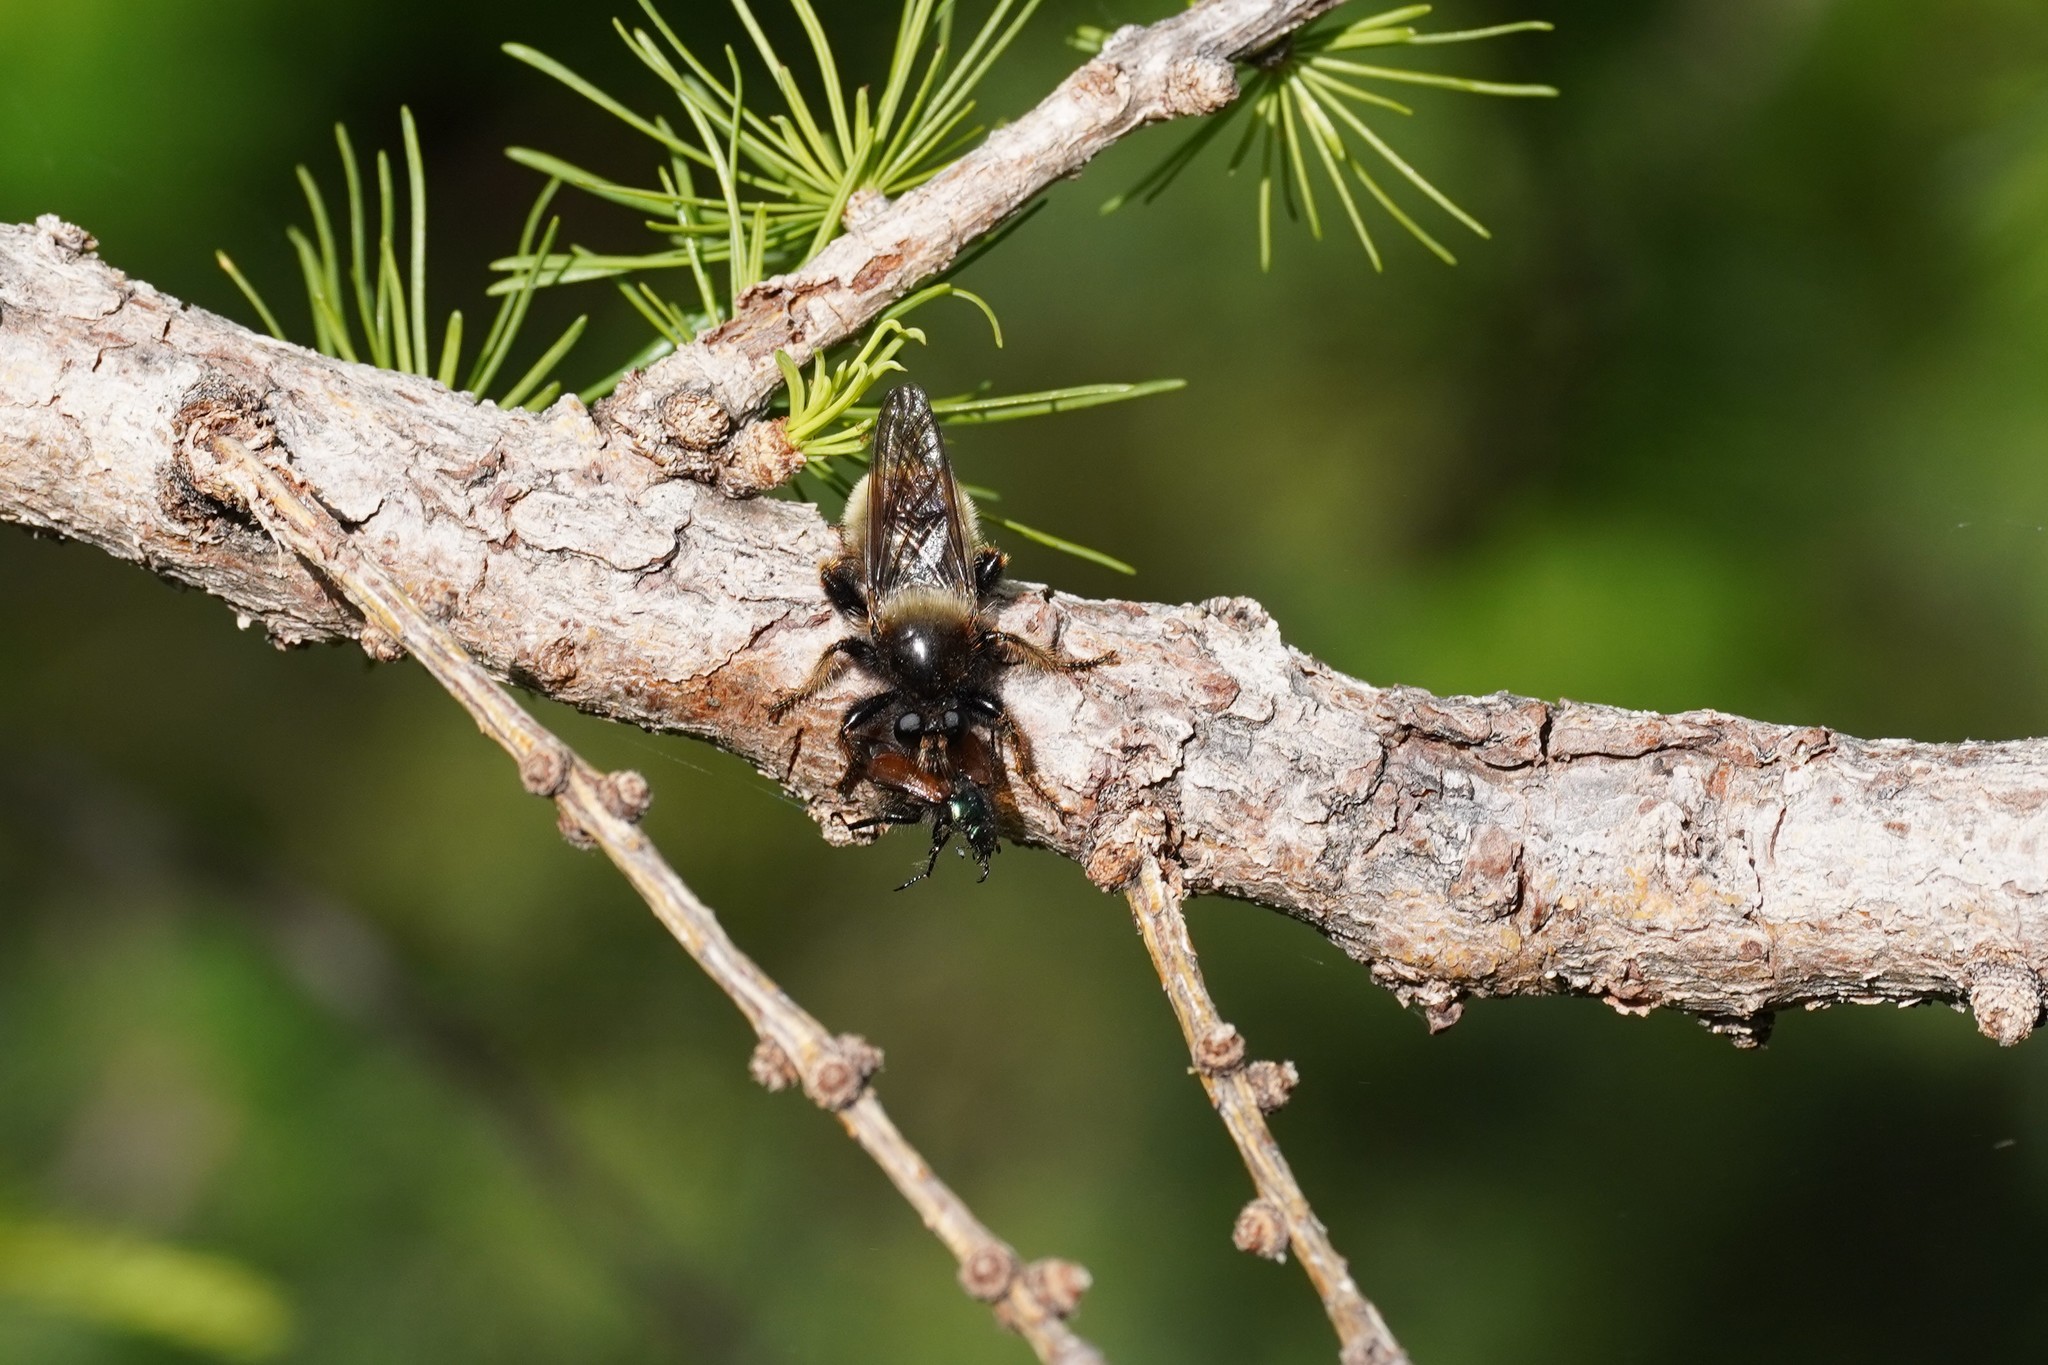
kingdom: Animalia
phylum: Arthropoda
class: Insecta
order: Diptera
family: Asilidae
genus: Laphria
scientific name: Laphria flava
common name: Bumblebee robberfly
